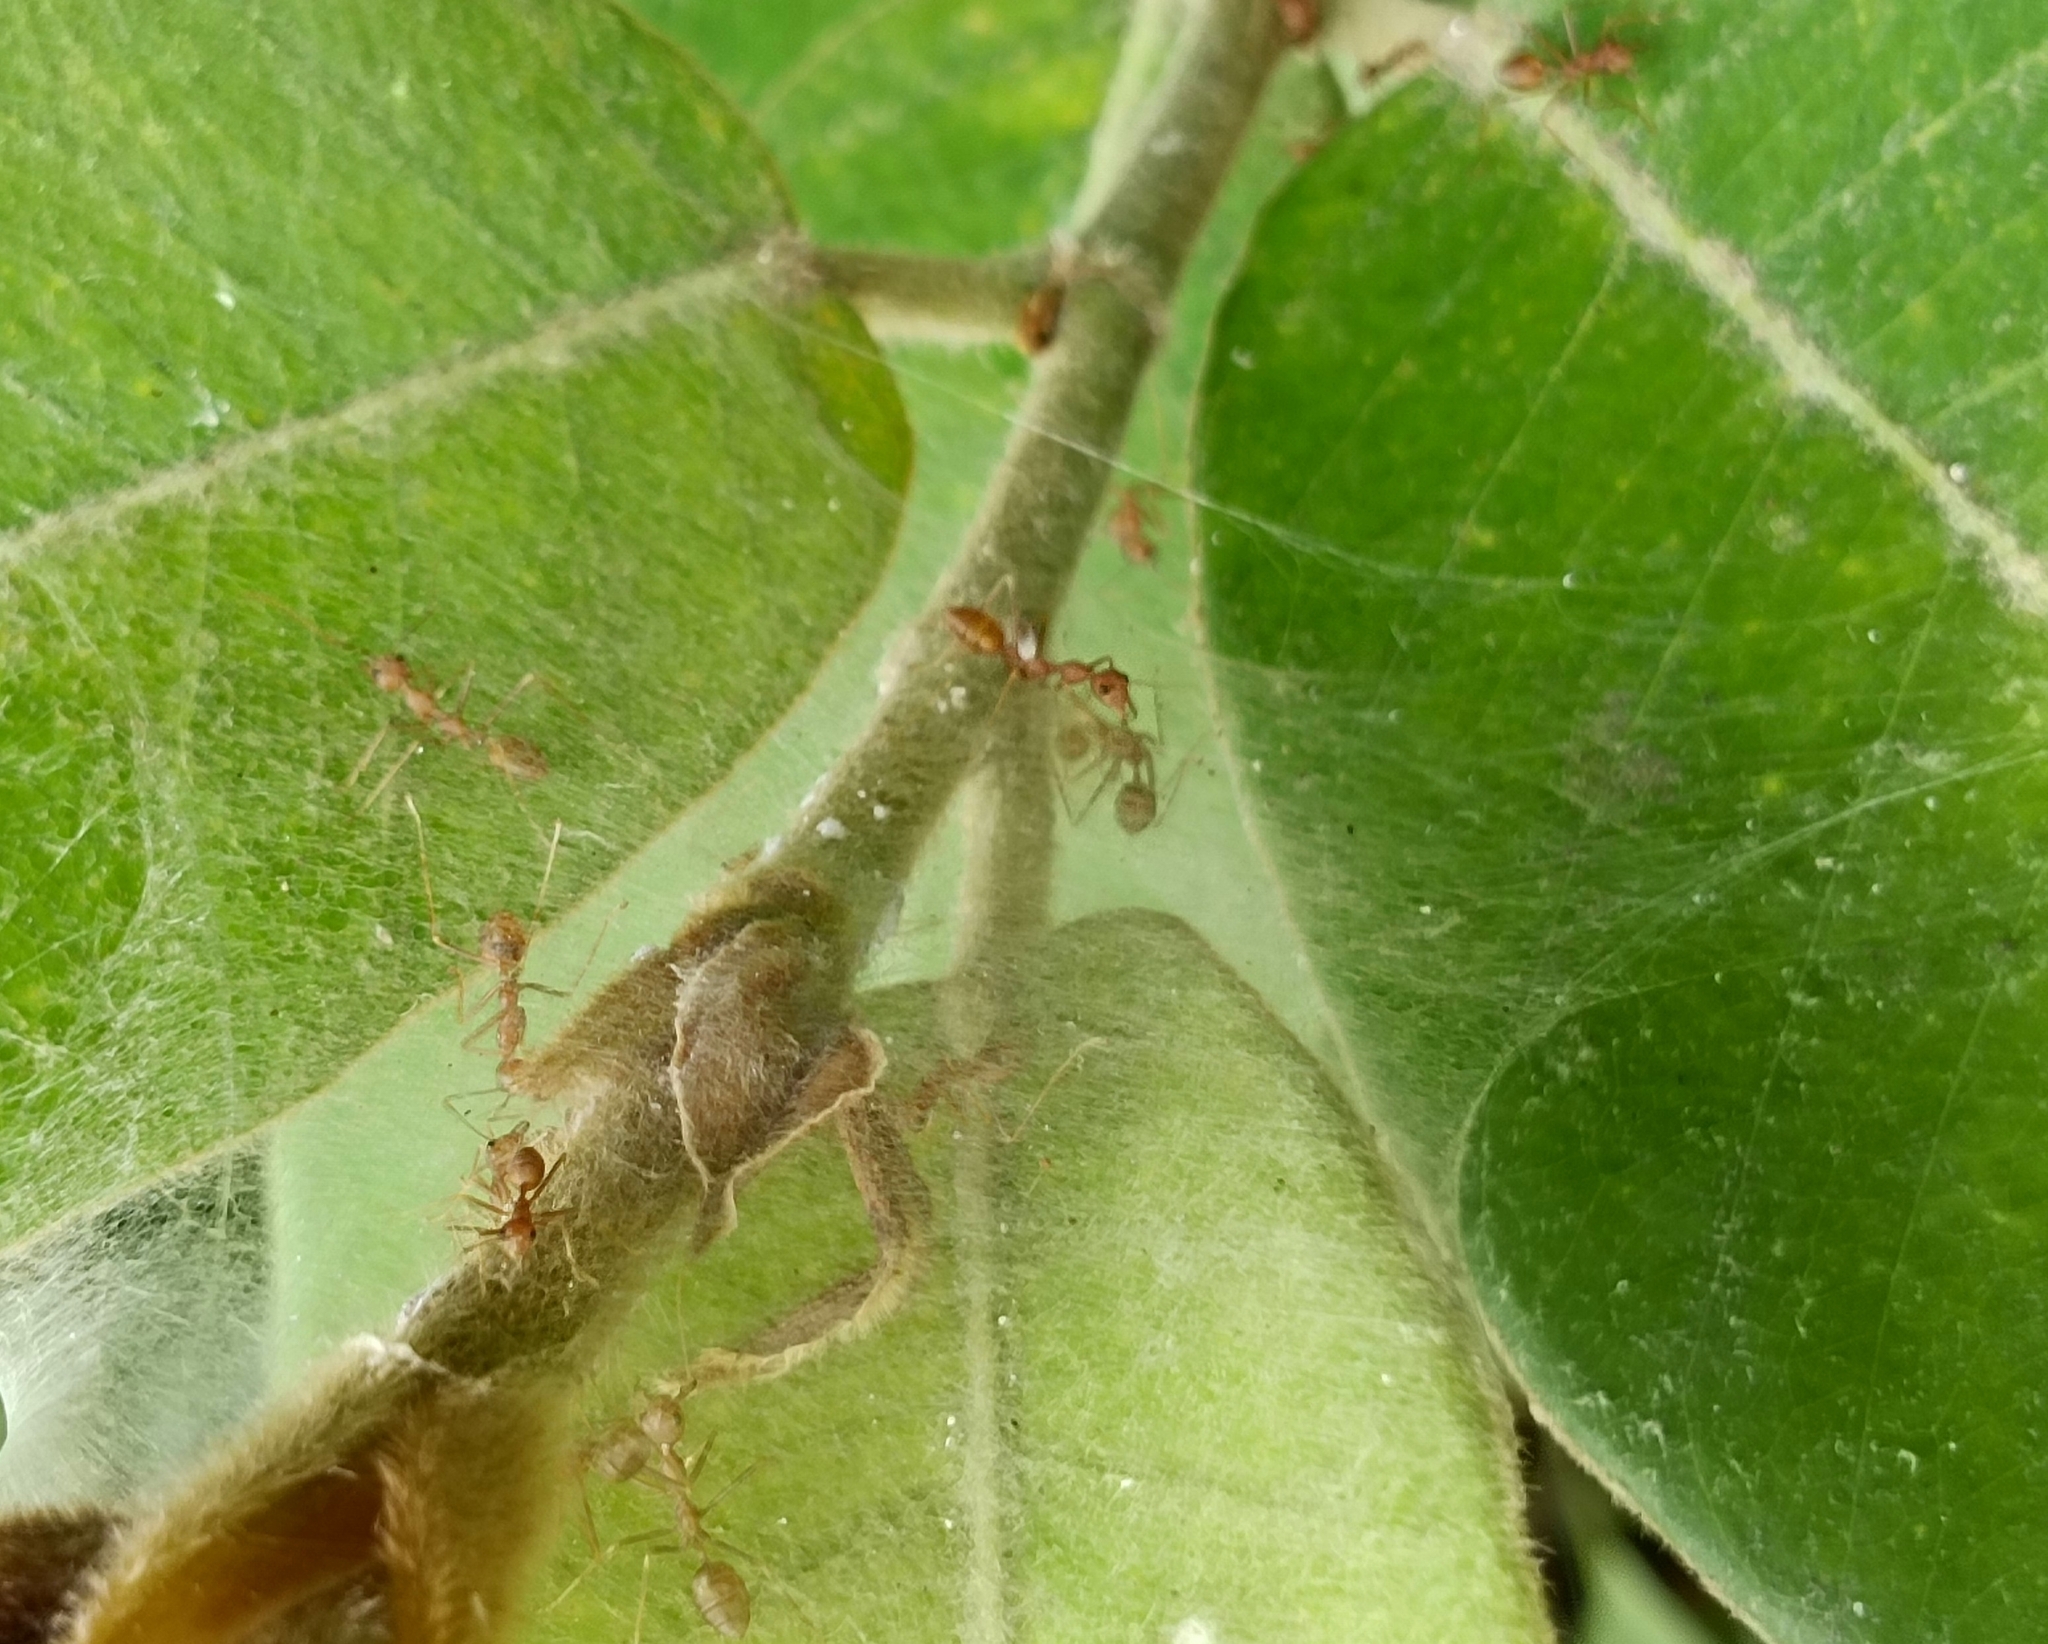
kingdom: Animalia
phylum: Arthropoda
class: Insecta
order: Hymenoptera
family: Formicidae
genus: Oecophylla
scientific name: Oecophylla smaragdina
